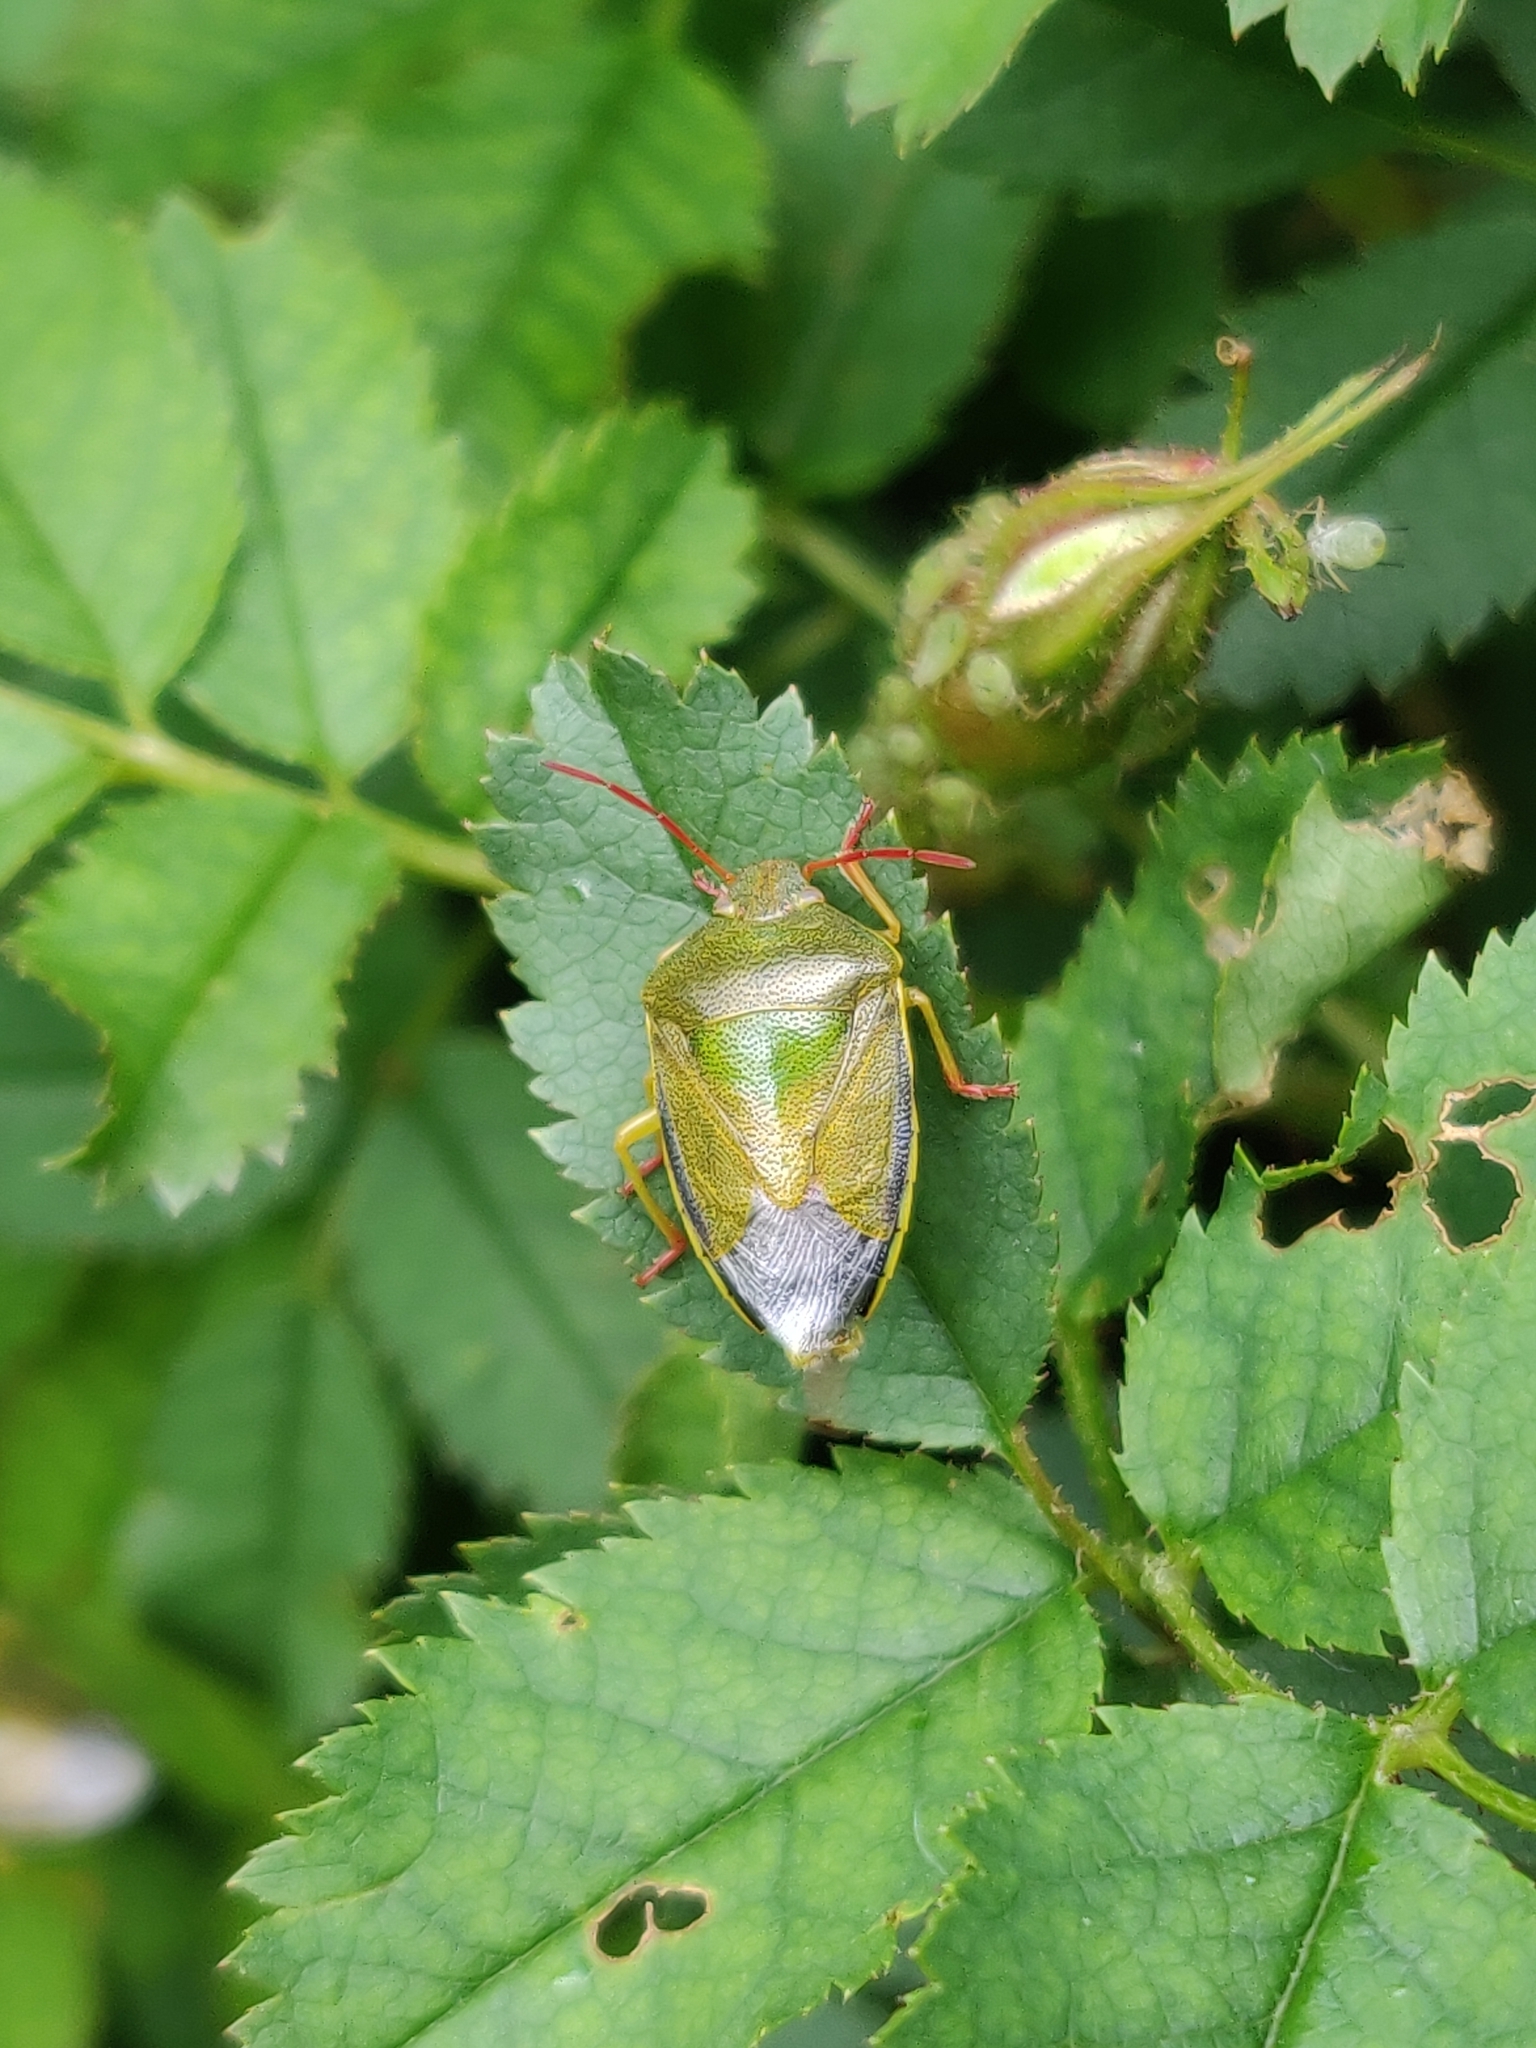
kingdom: Animalia
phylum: Arthropoda
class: Insecta
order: Hemiptera
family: Pentatomidae
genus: Piezodorus
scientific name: Piezodorus lituratus
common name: Stink bug
